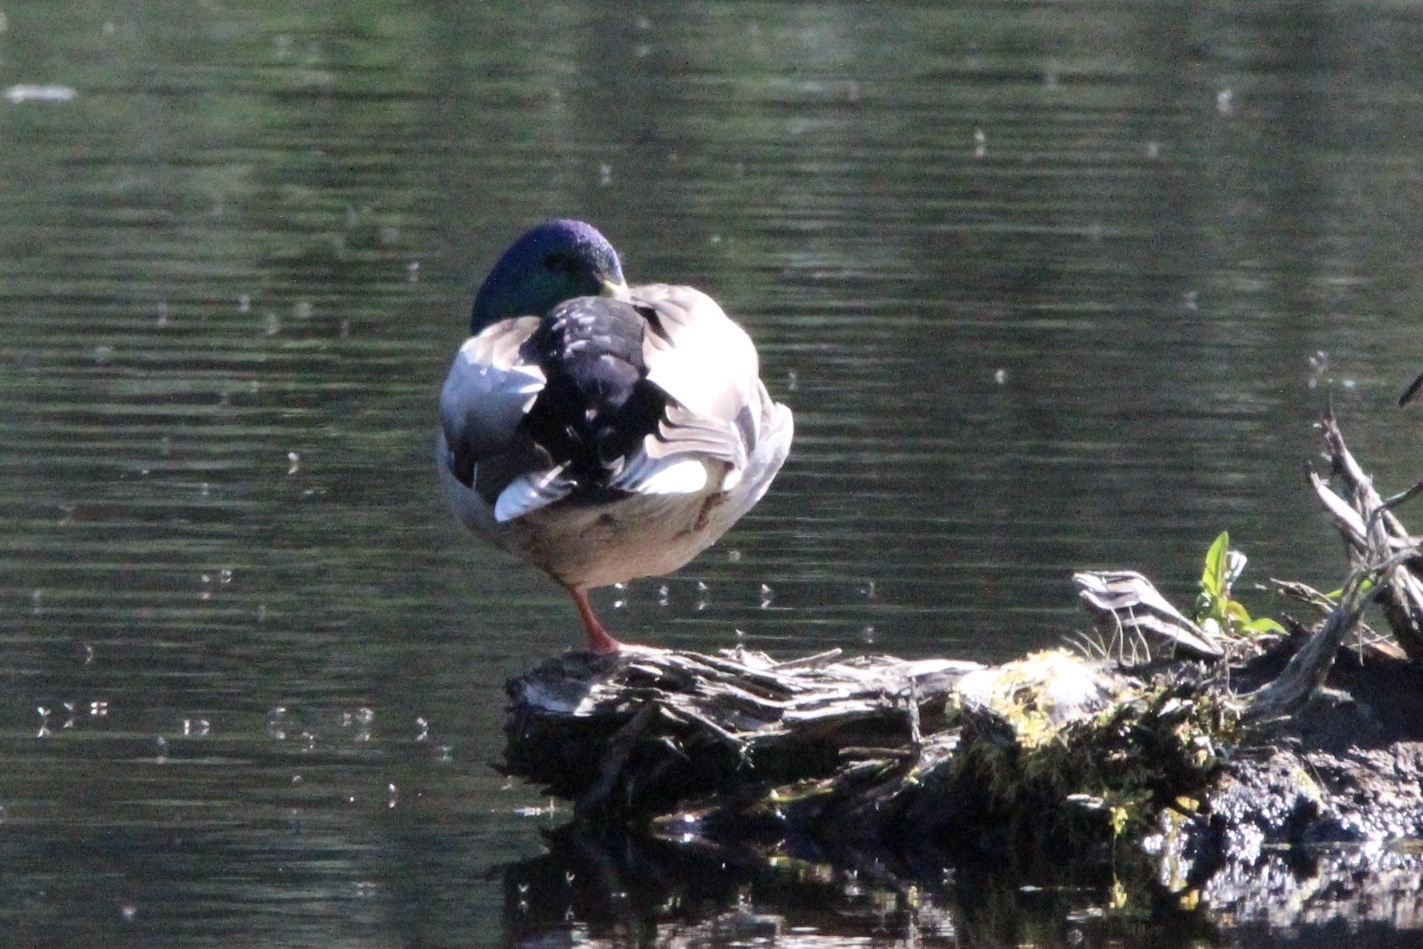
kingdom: Animalia
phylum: Chordata
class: Aves
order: Anseriformes
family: Anatidae
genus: Anas
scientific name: Anas platyrhynchos
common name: Mallard
